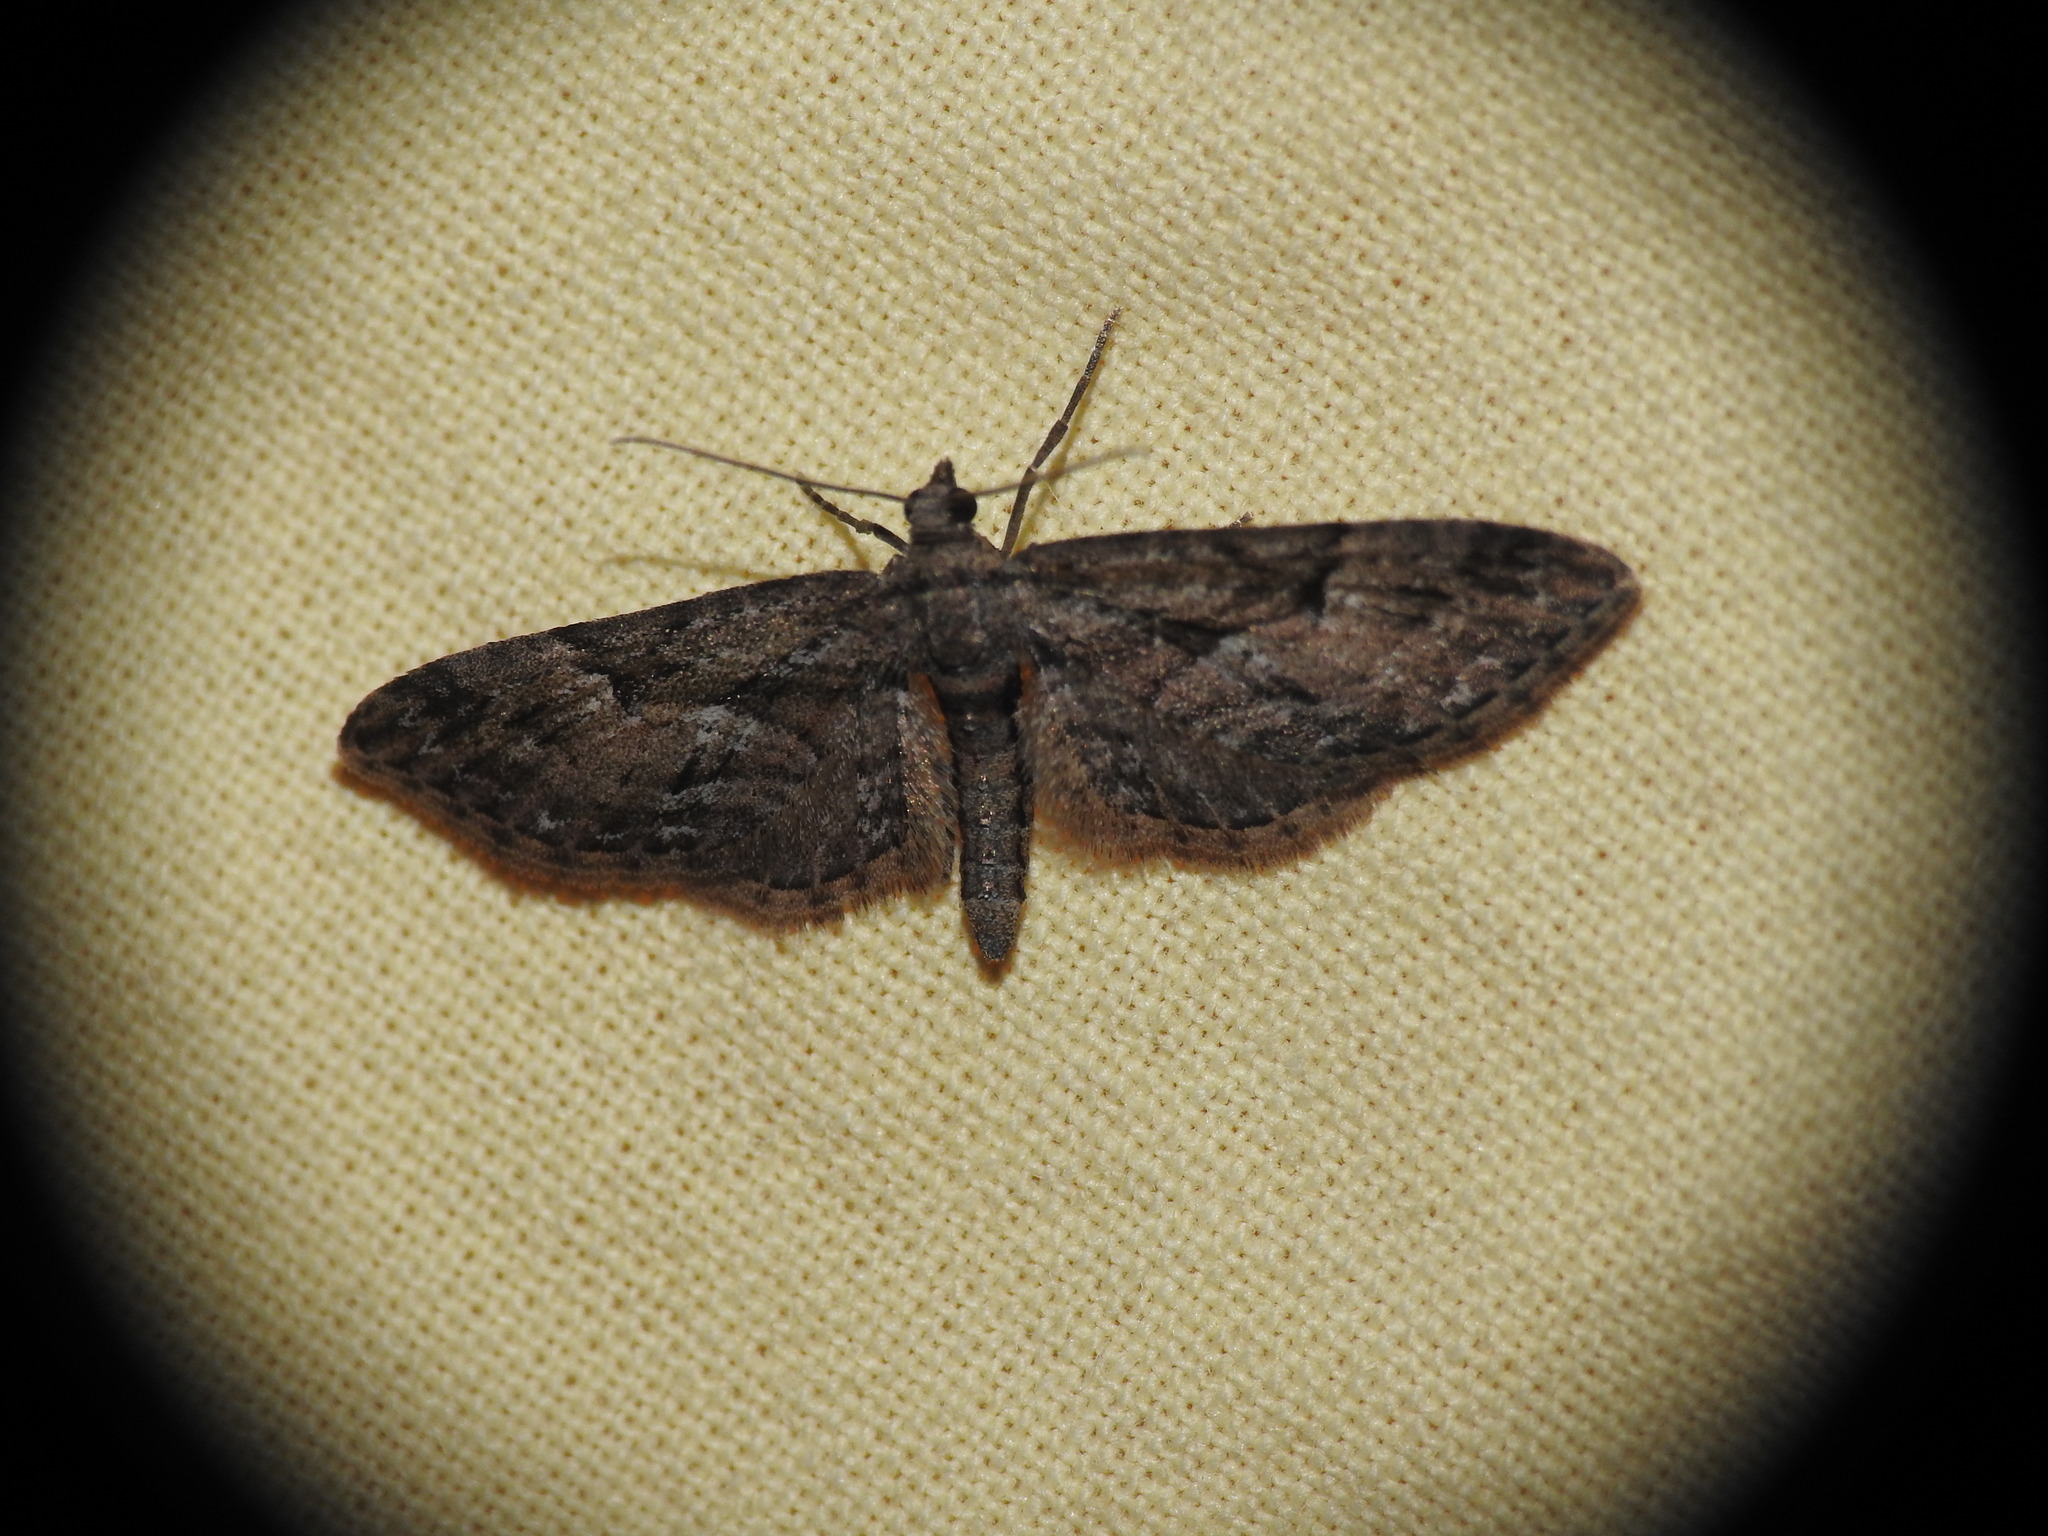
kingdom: Animalia
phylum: Arthropoda
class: Insecta
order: Lepidoptera
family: Geometridae
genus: Eupithecia
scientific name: Eupithecia oxycedrata
